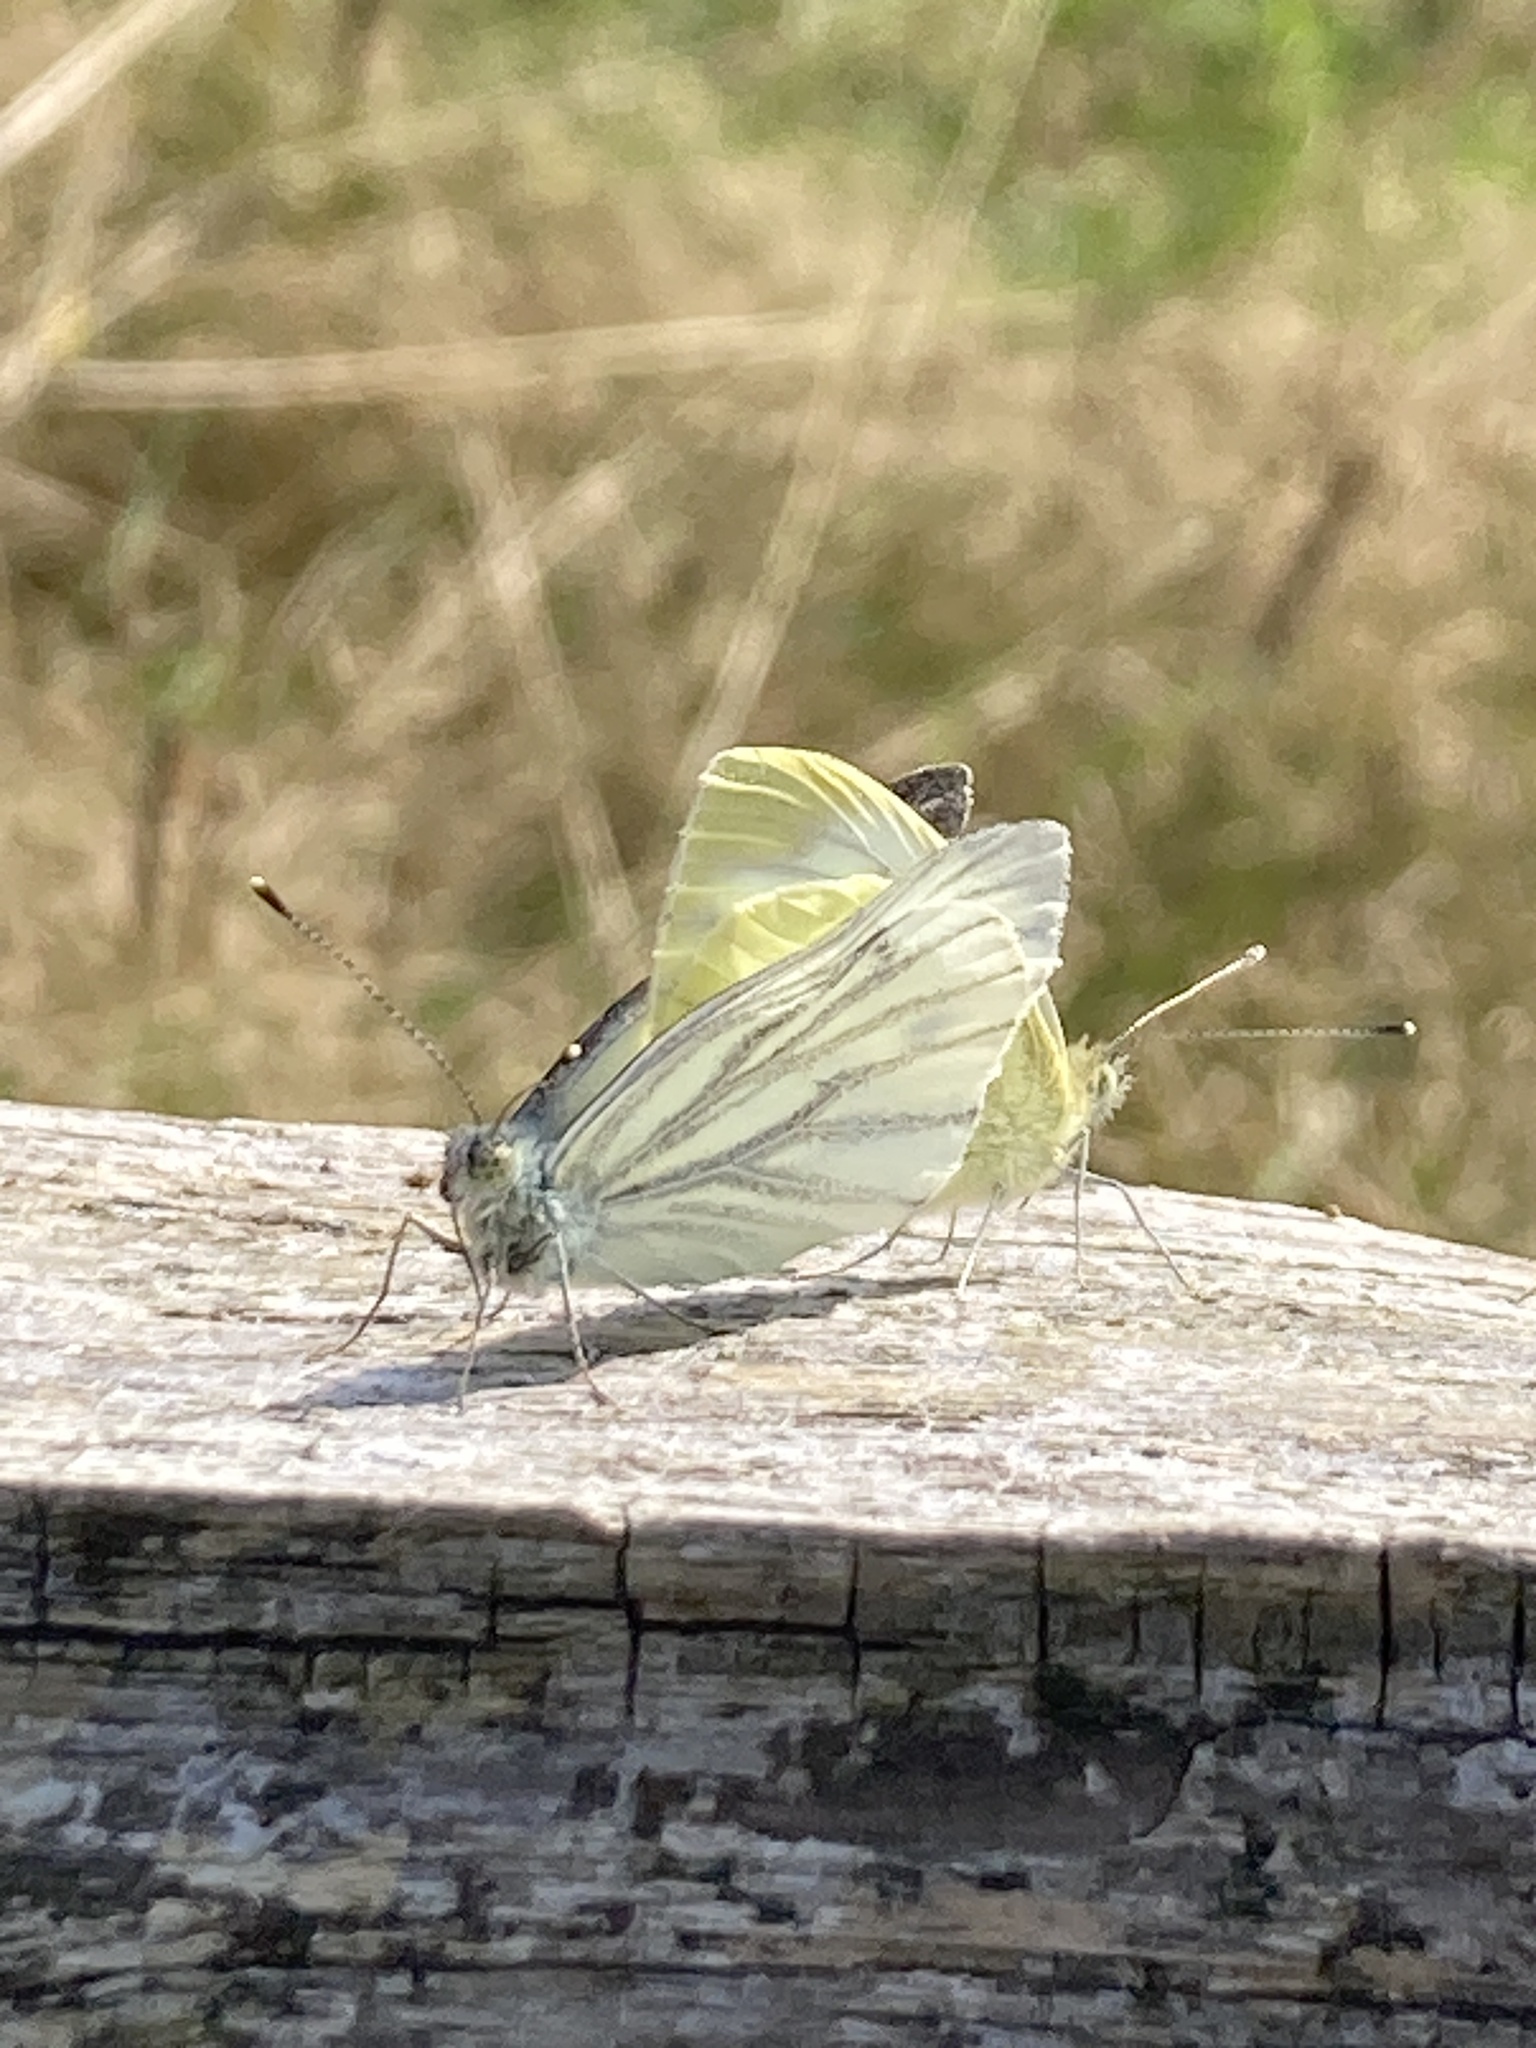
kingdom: Animalia
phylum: Arthropoda
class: Insecta
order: Lepidoptera
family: Pieridae
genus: Pieris
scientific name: Pieris napi
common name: Green-veined white
